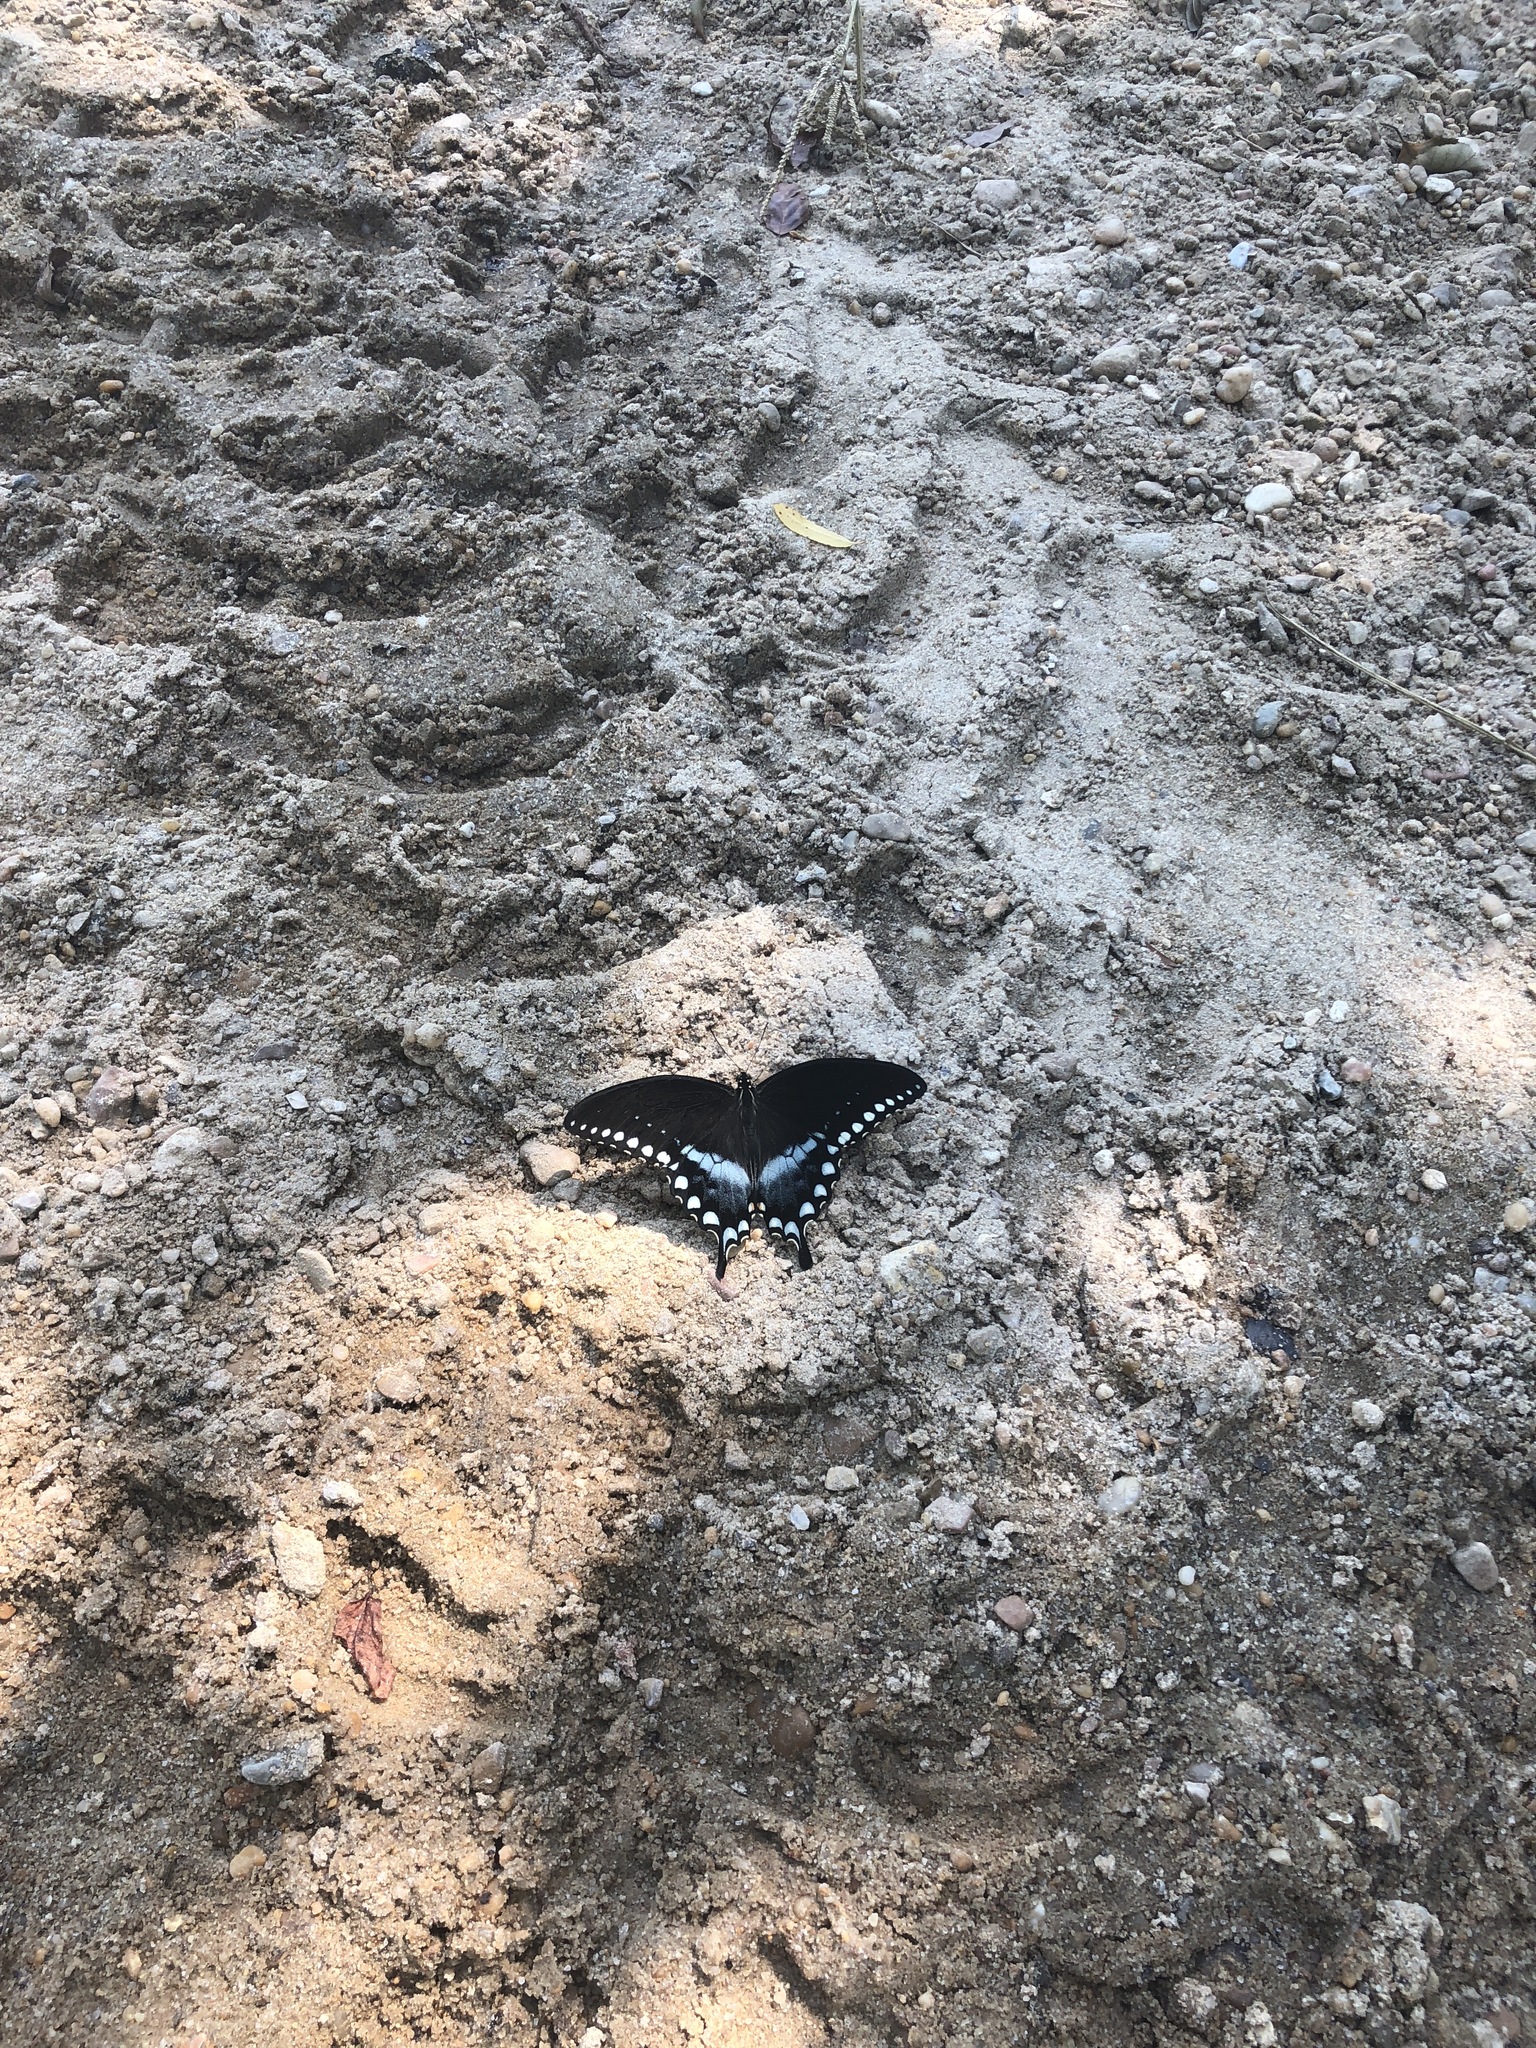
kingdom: Animalia
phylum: Arthropoda
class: Insecta
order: Lepidoptera
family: Papilionidae
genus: Papilio
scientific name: Papilio troilus
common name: Spicebush swallowtail
